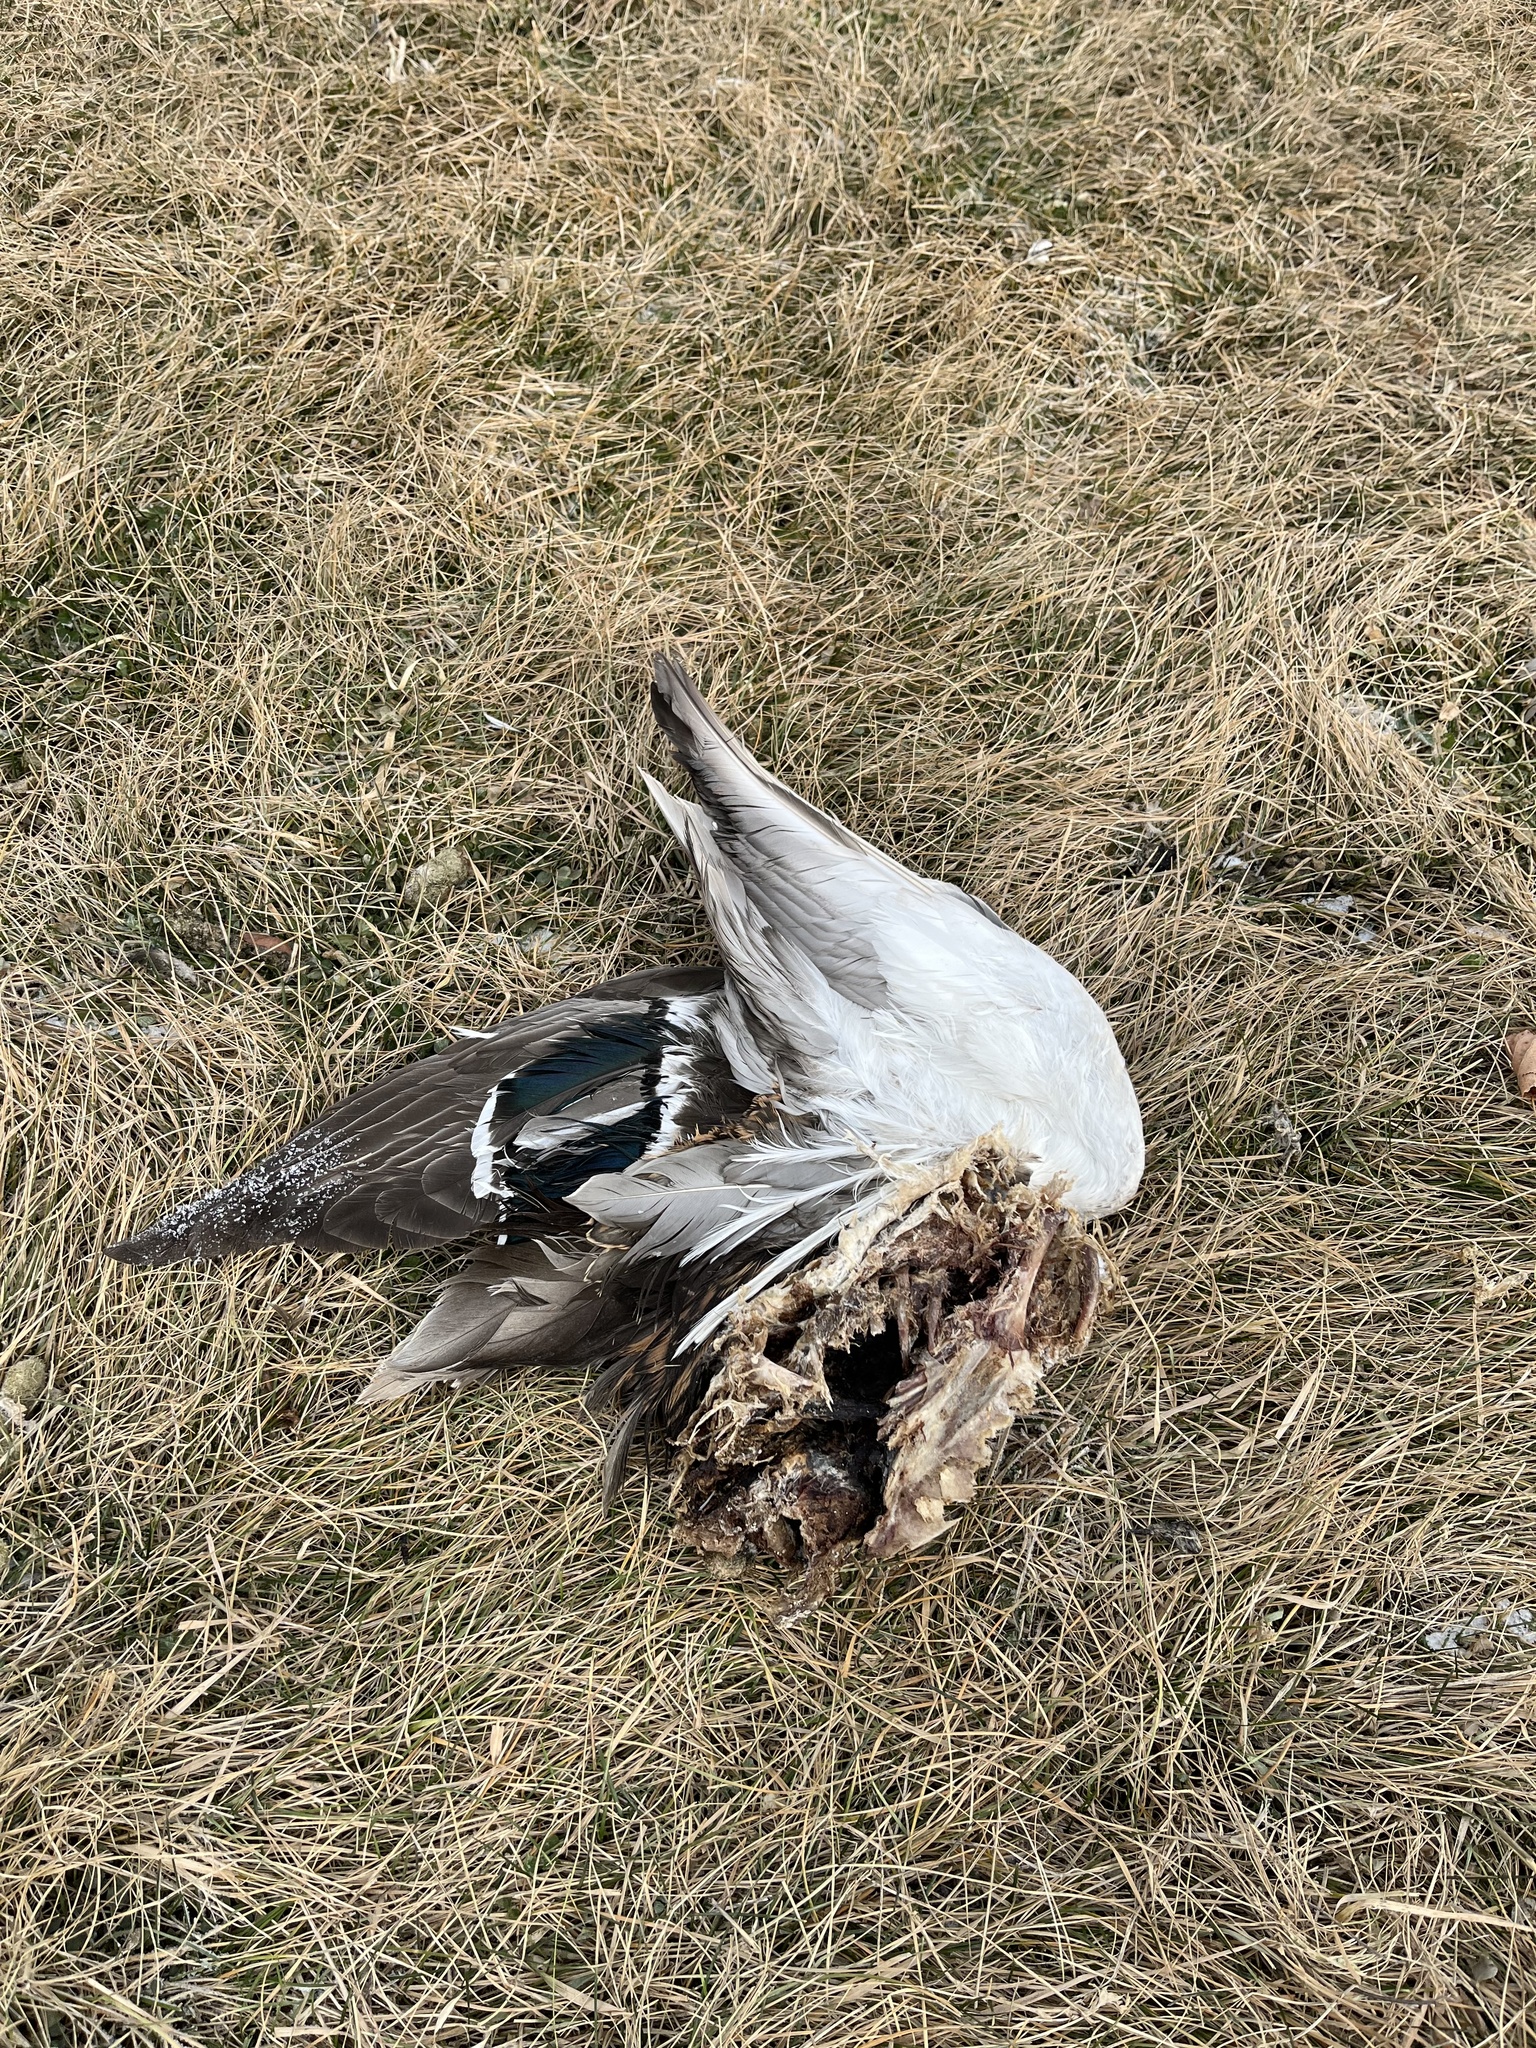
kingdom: Animalia
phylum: Chordata
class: Aves
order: Anseriformes
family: Anatidae
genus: Anas
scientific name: Anas platyrhynchos
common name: Mallard
